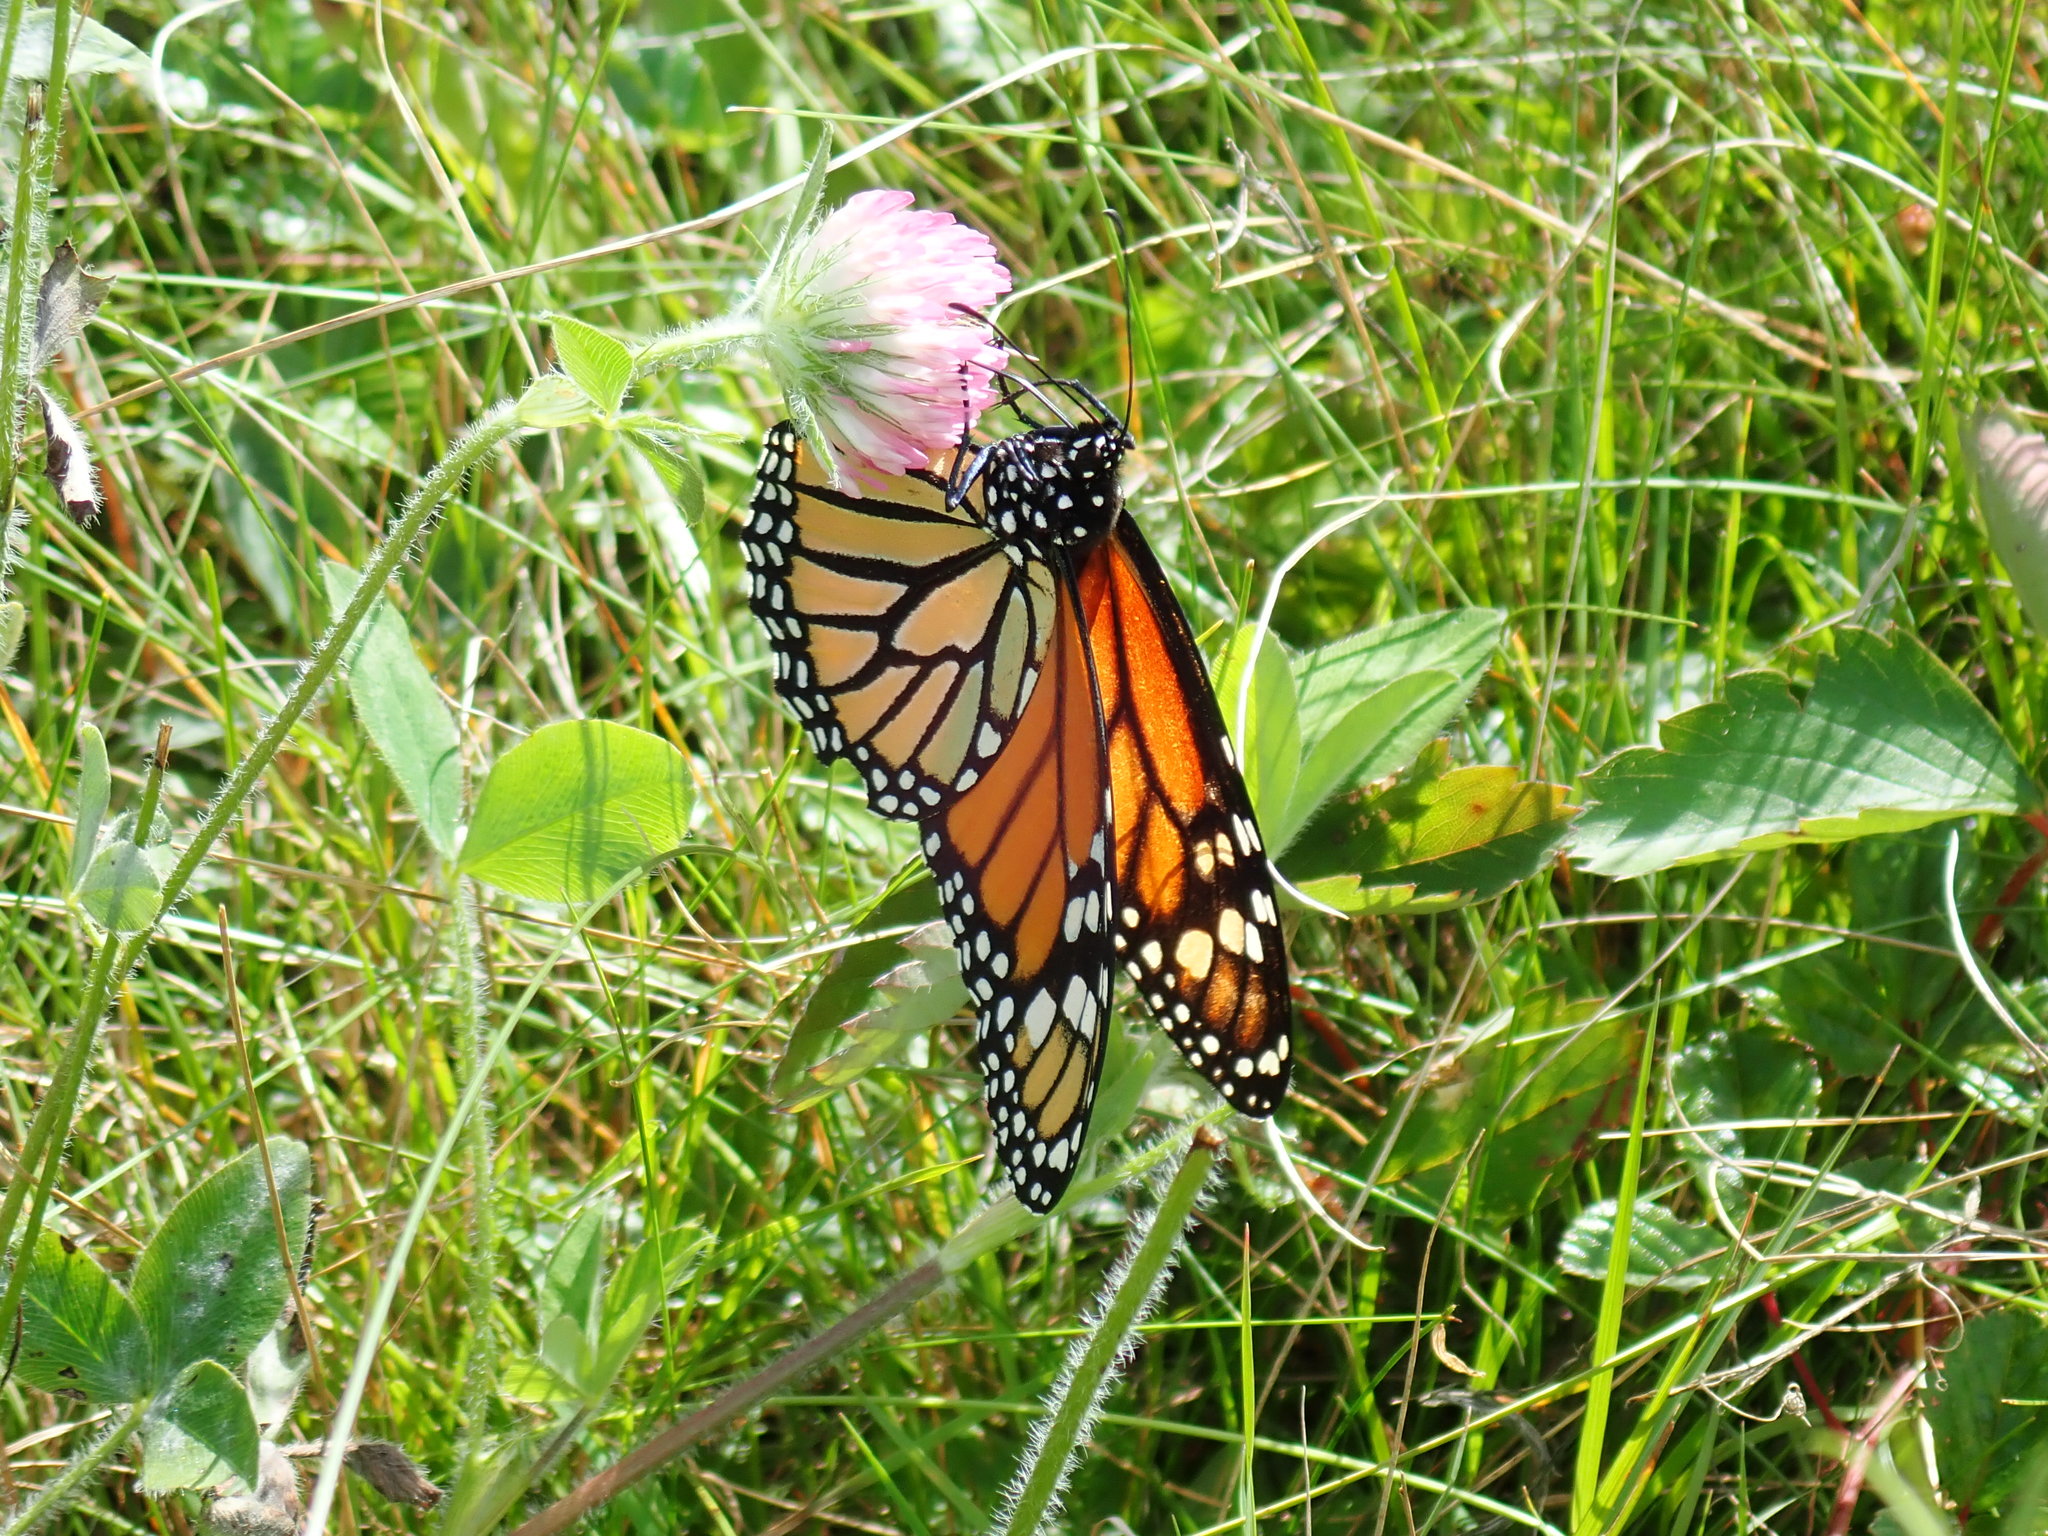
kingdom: Animalia
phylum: Arthropoda
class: Insecta
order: Lepidoptera
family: Nymphalidae
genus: Danaus
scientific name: Danaus plexippus
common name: Monarch
